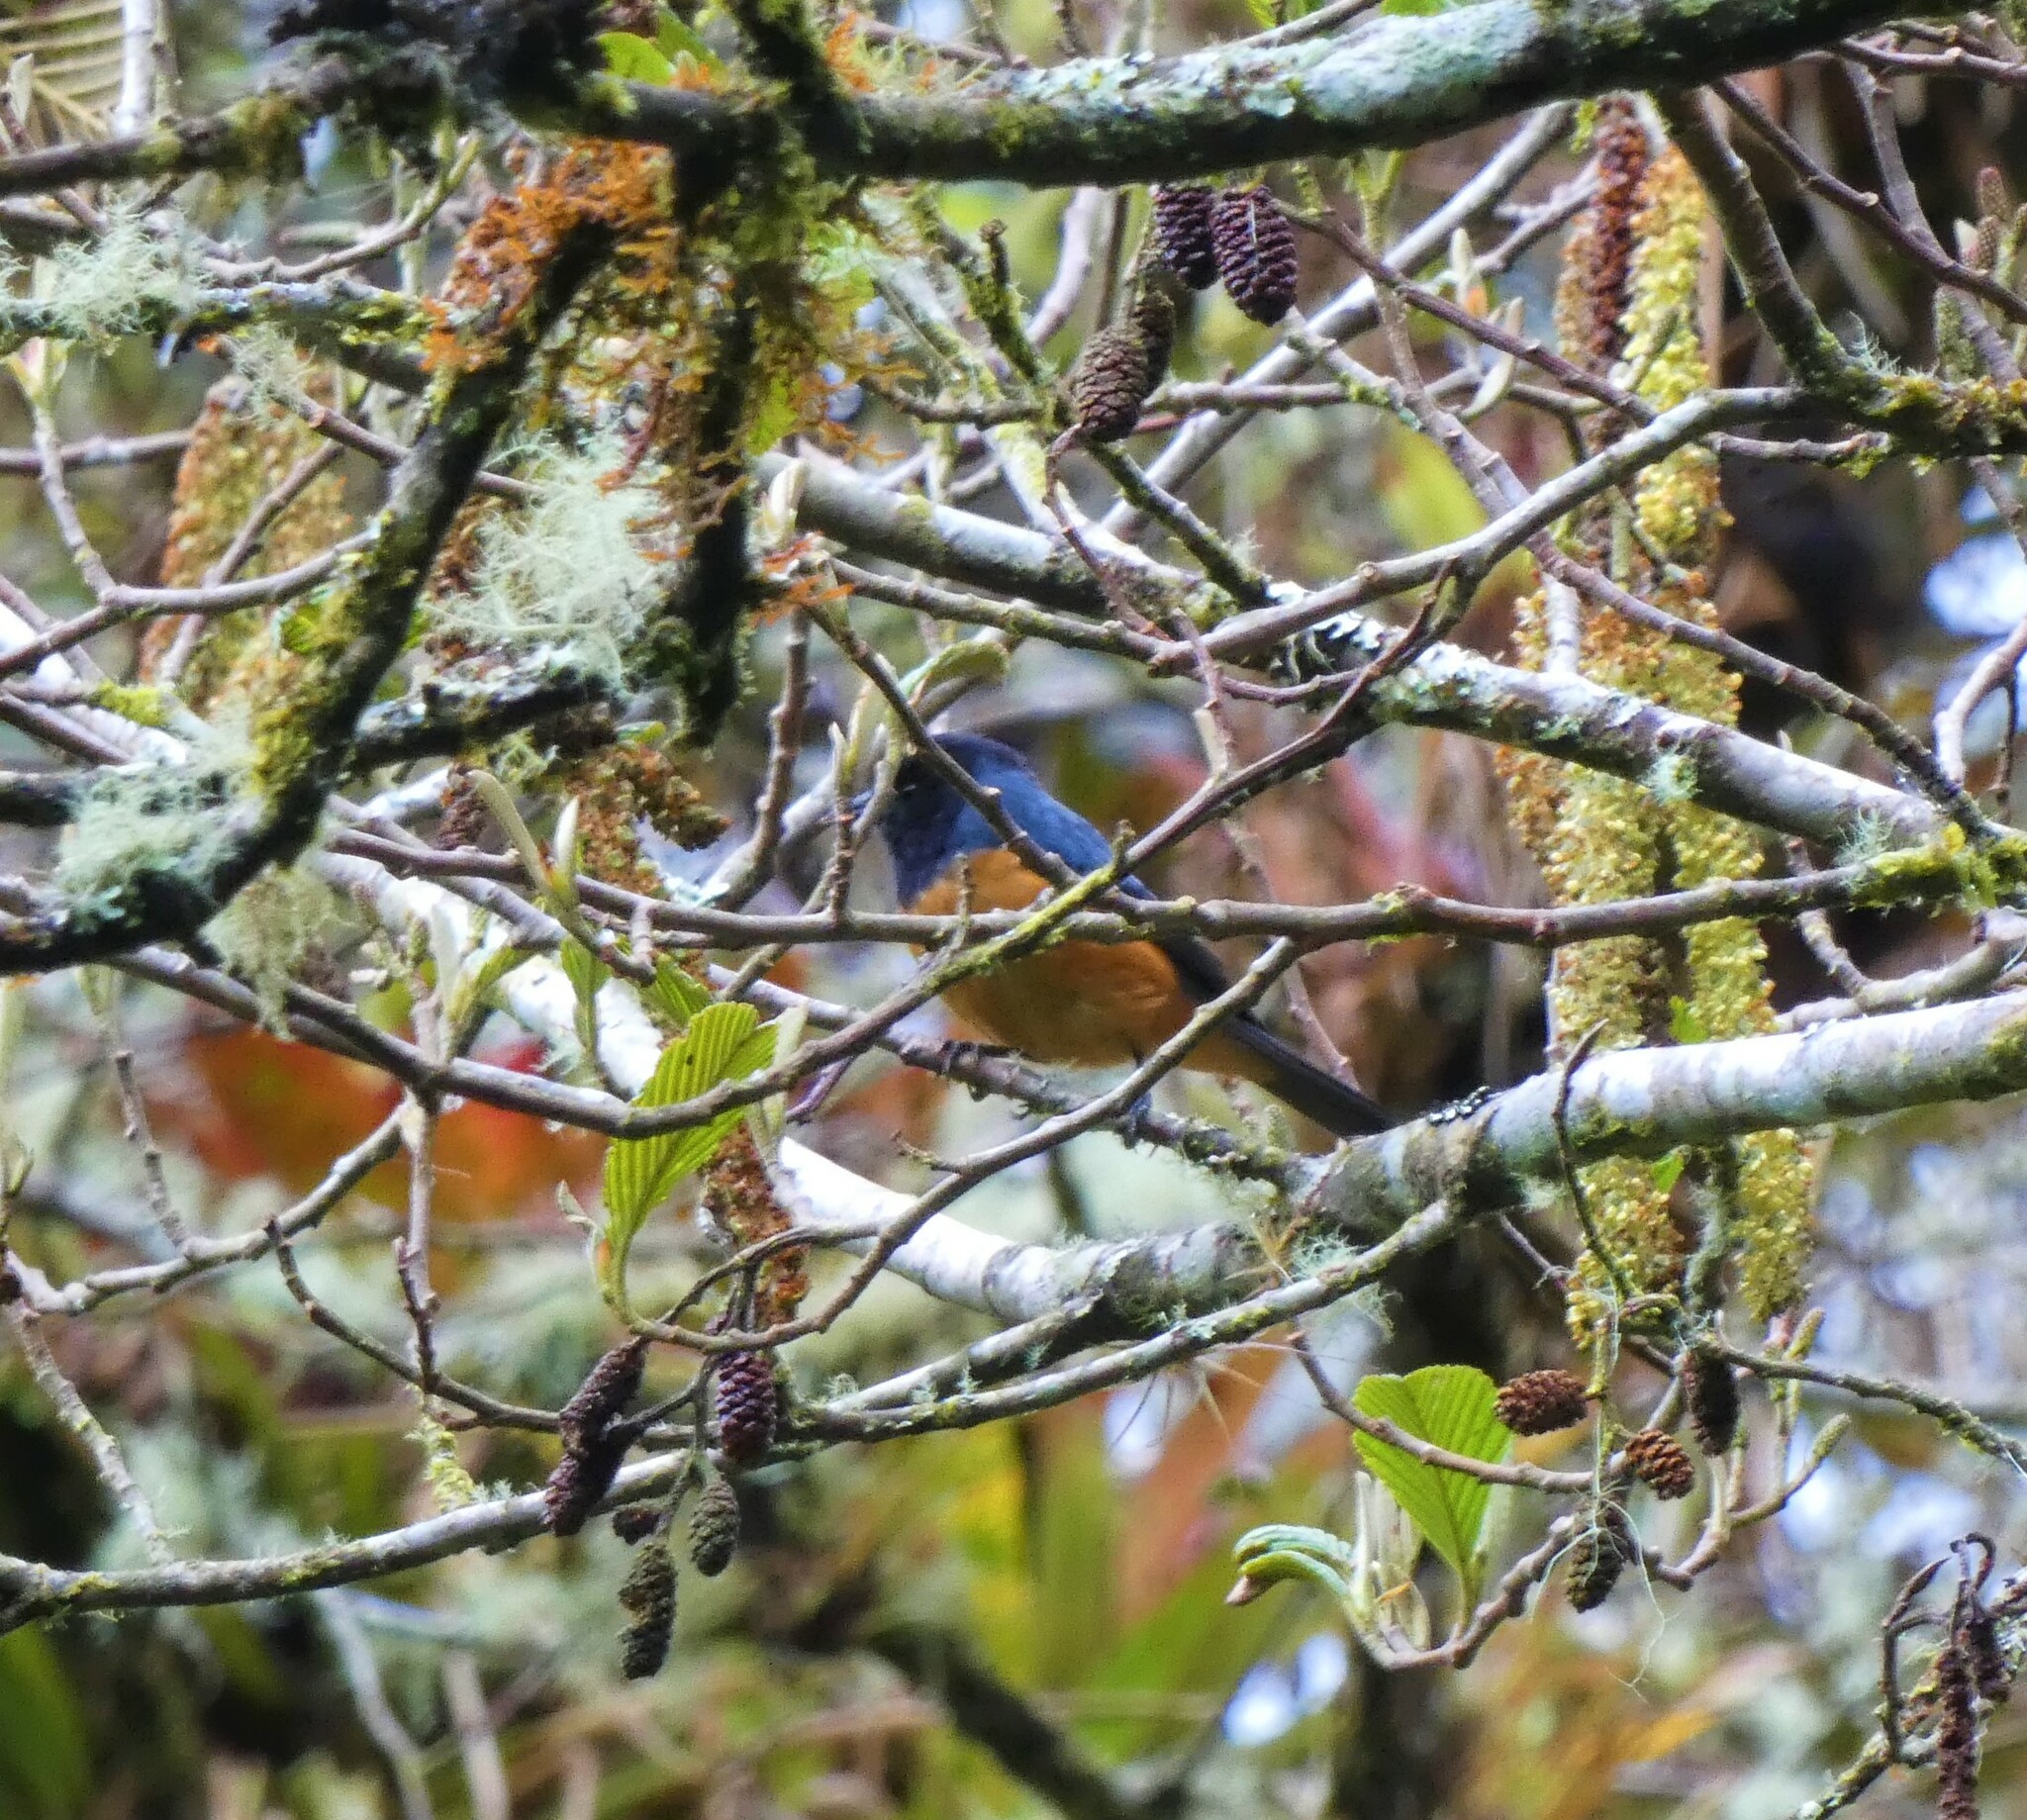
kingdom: Animalia
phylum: Chordata
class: Aves
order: Passeriformes
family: Thraupidae
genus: Conirostrum
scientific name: Conirostrum sitticolor
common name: Blue-backed conebill
